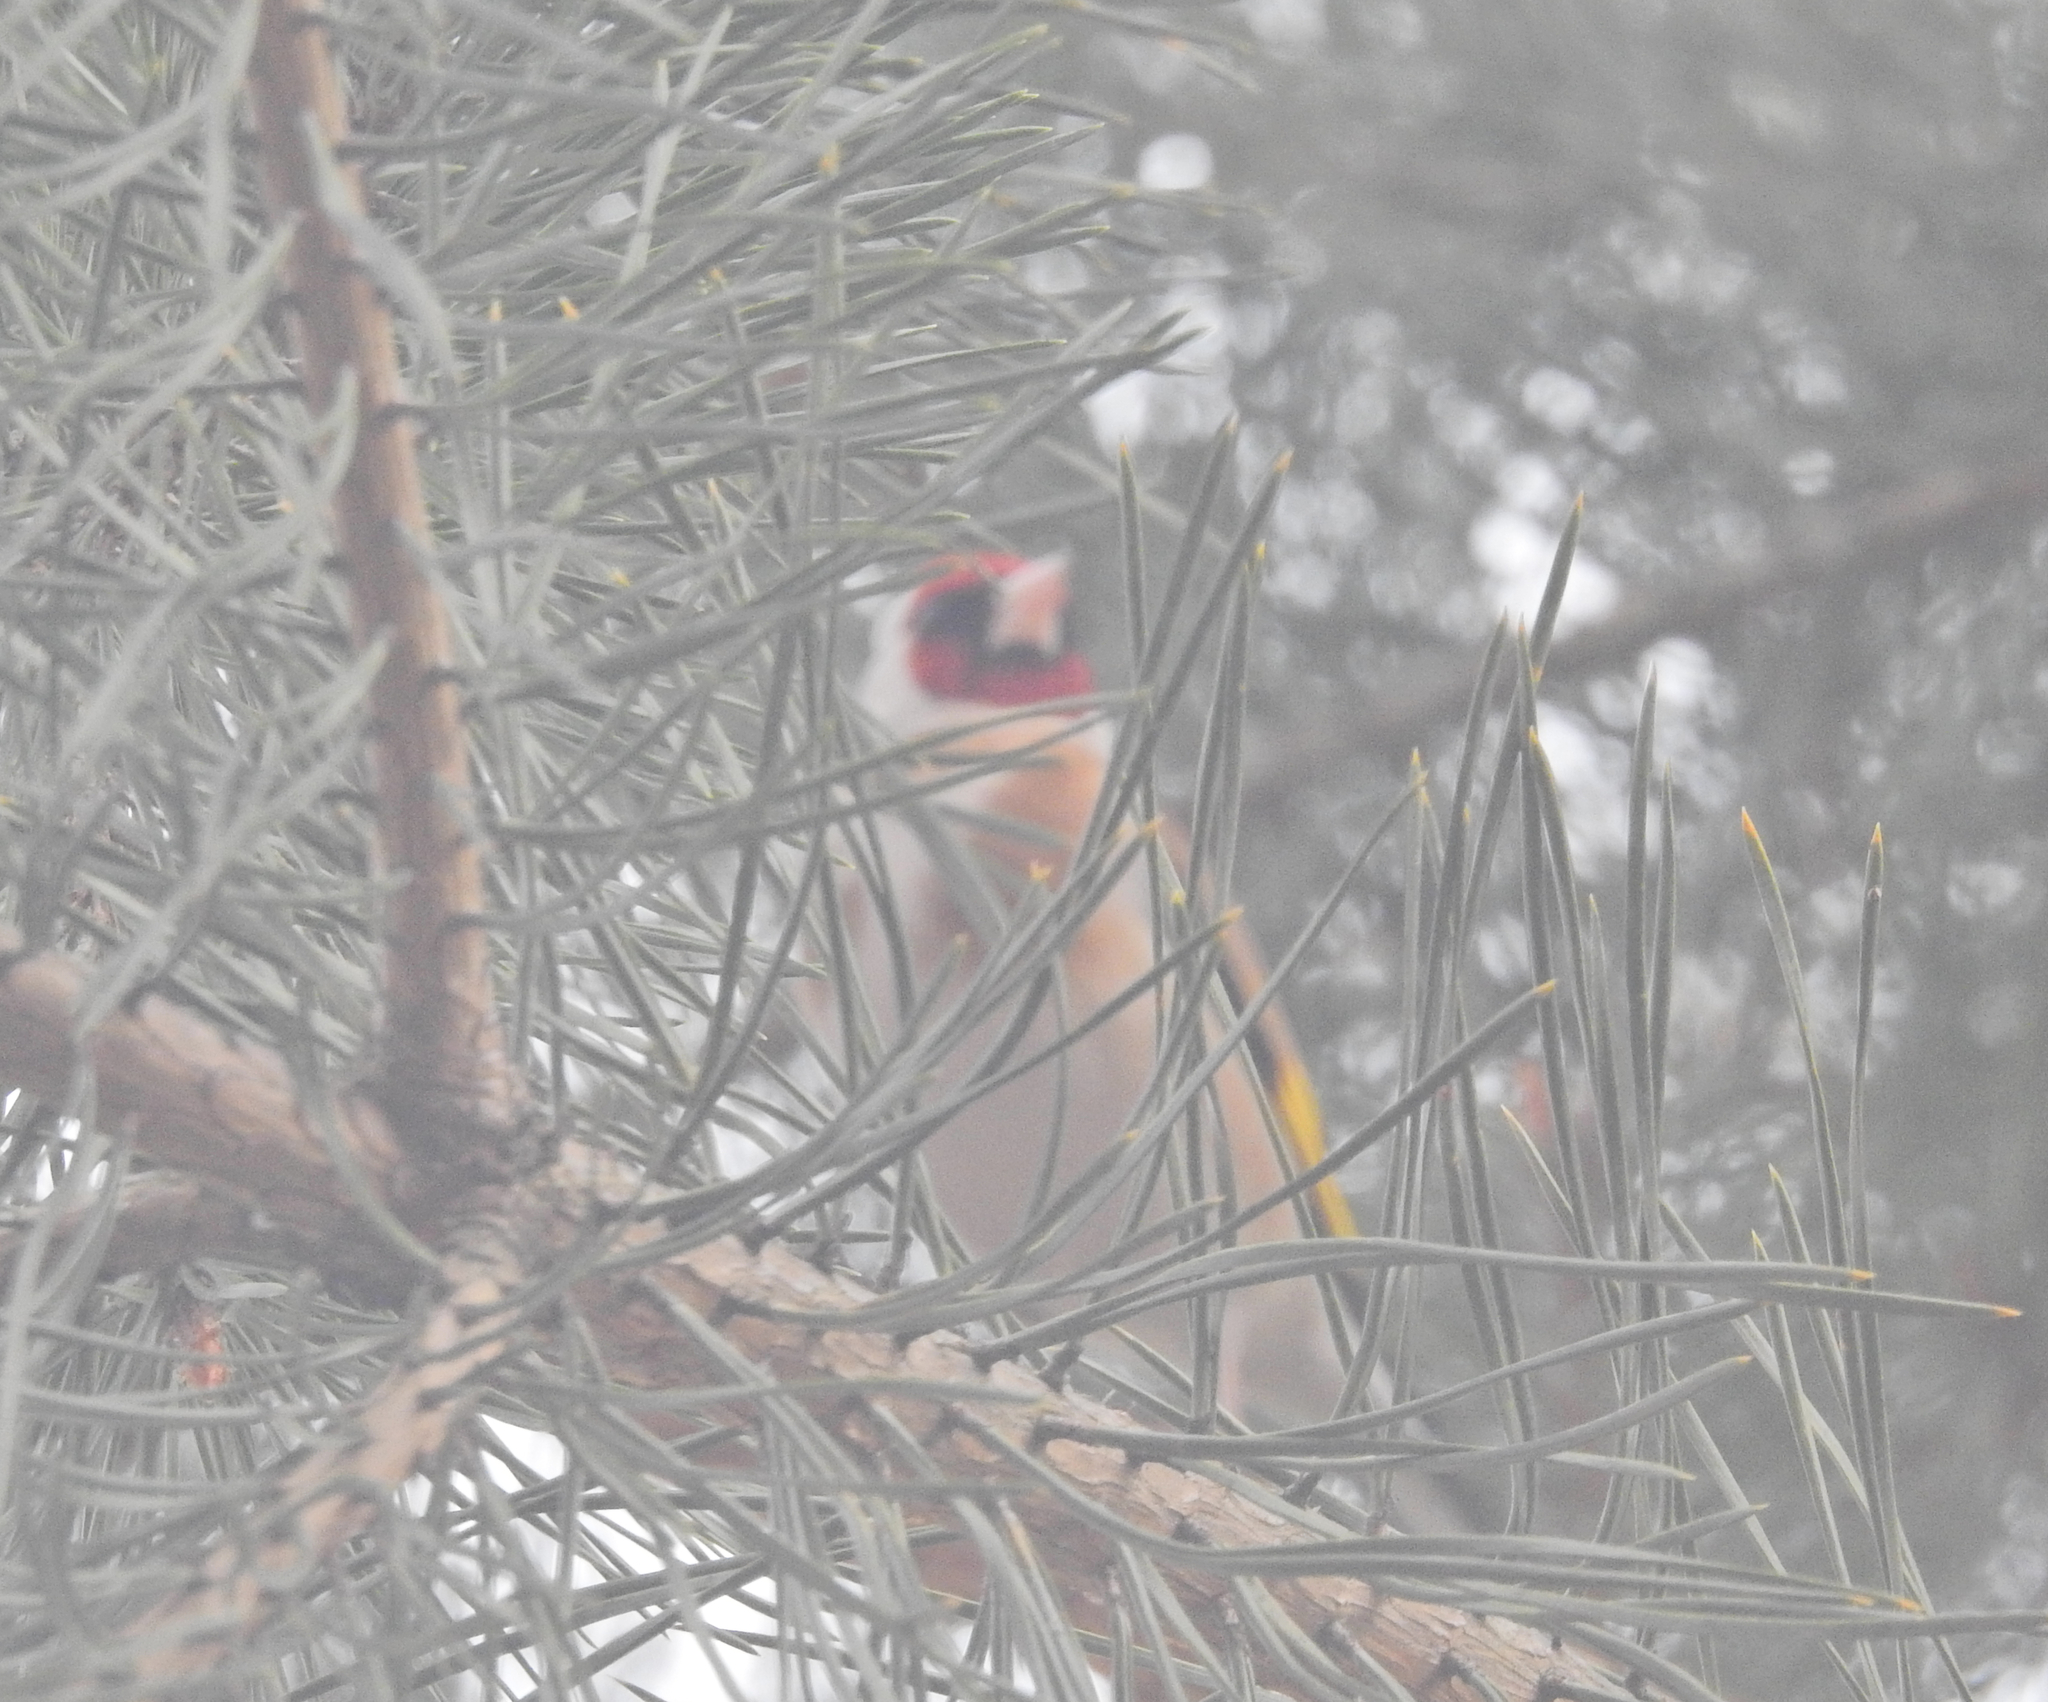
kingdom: Animalia
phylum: Chordata
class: Aves
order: Passeriformes
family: Fringillidae
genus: Carduelis
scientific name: Carduelis carduelis
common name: European goldfinch
